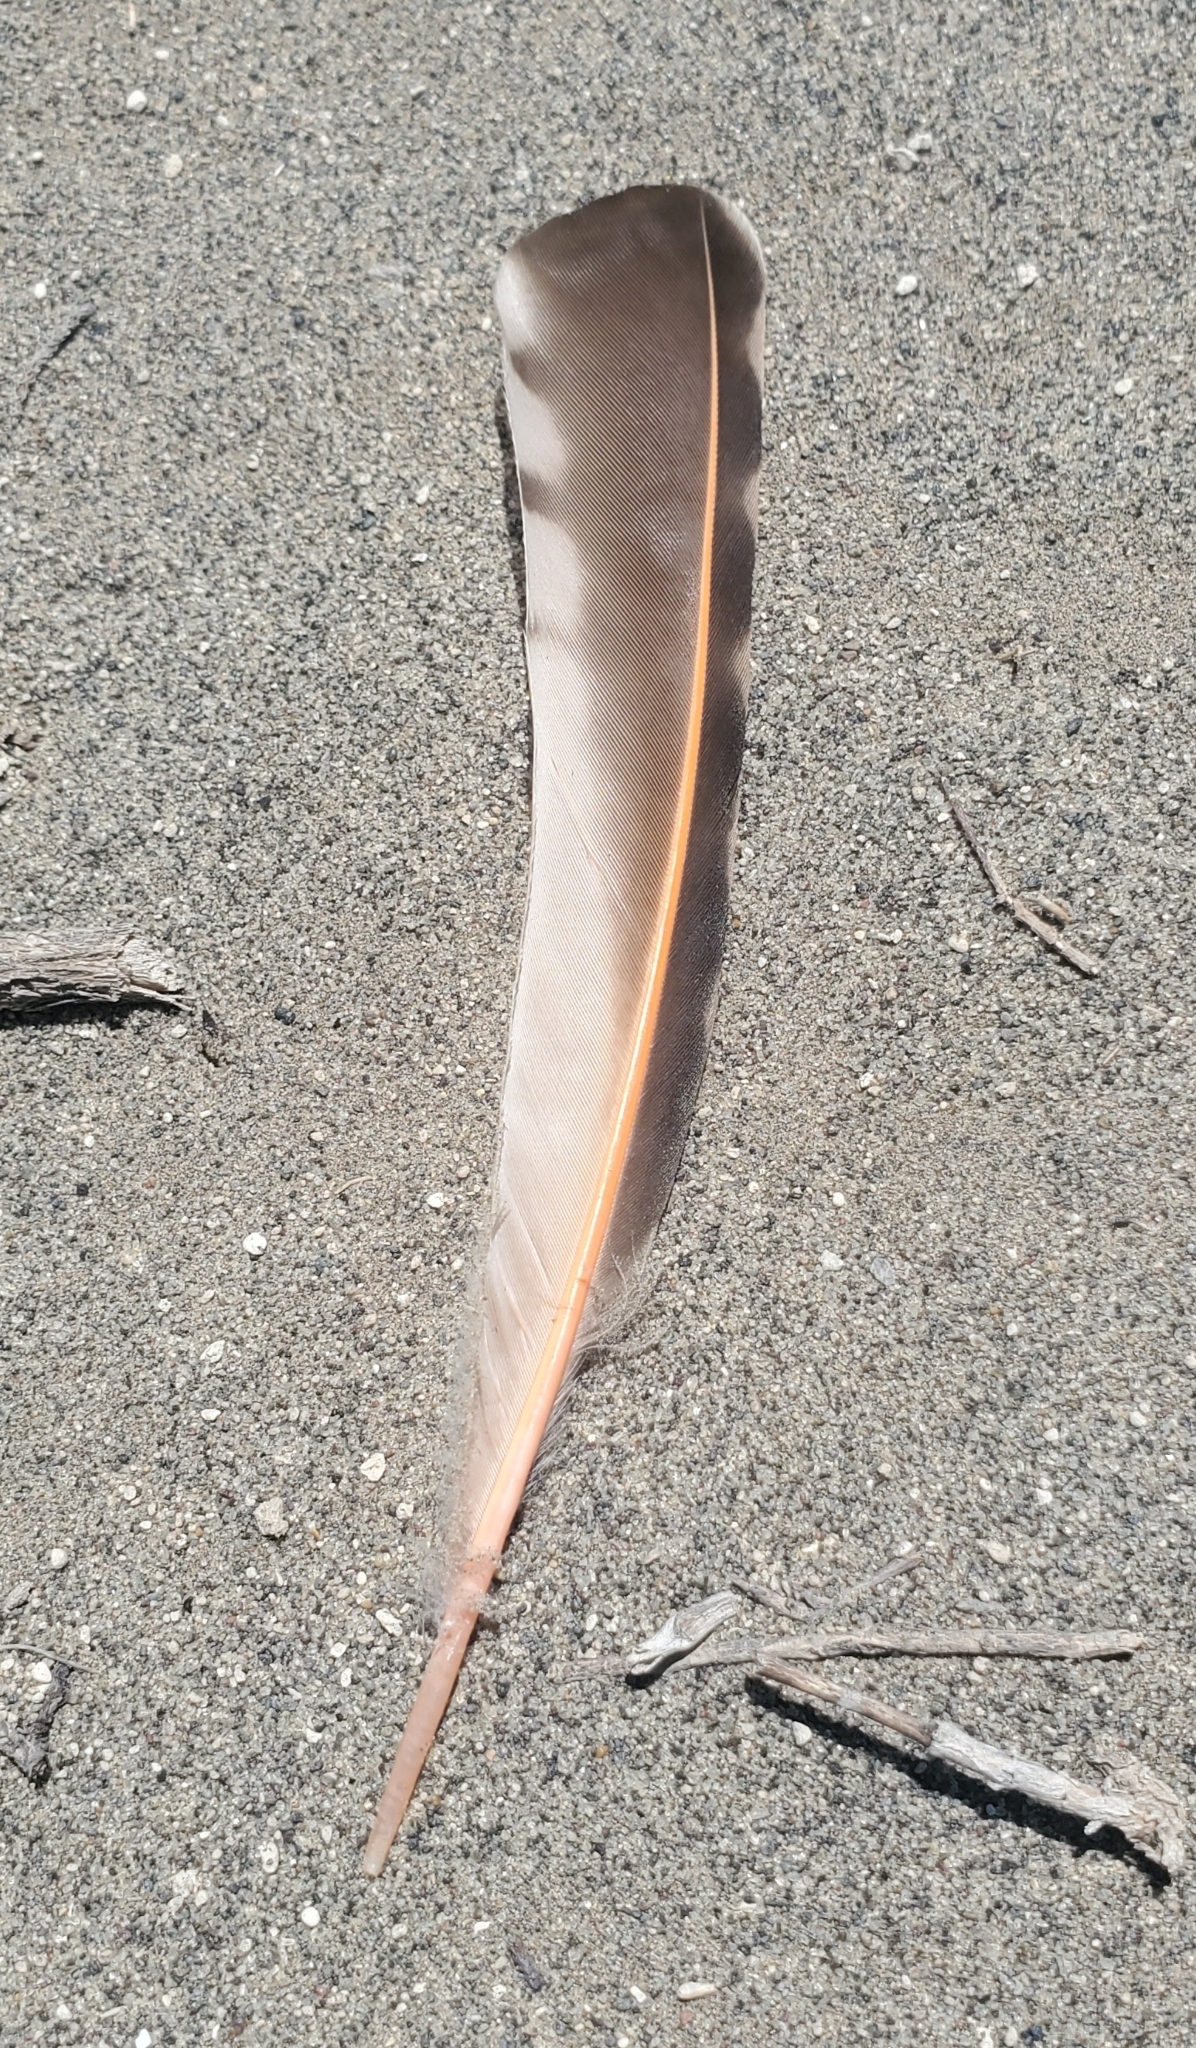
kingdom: Animalia
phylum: Chordata
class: Aves
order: Piciformes
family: Picidae
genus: Colaptes
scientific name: Colaptes auratus
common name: Northern flicker
